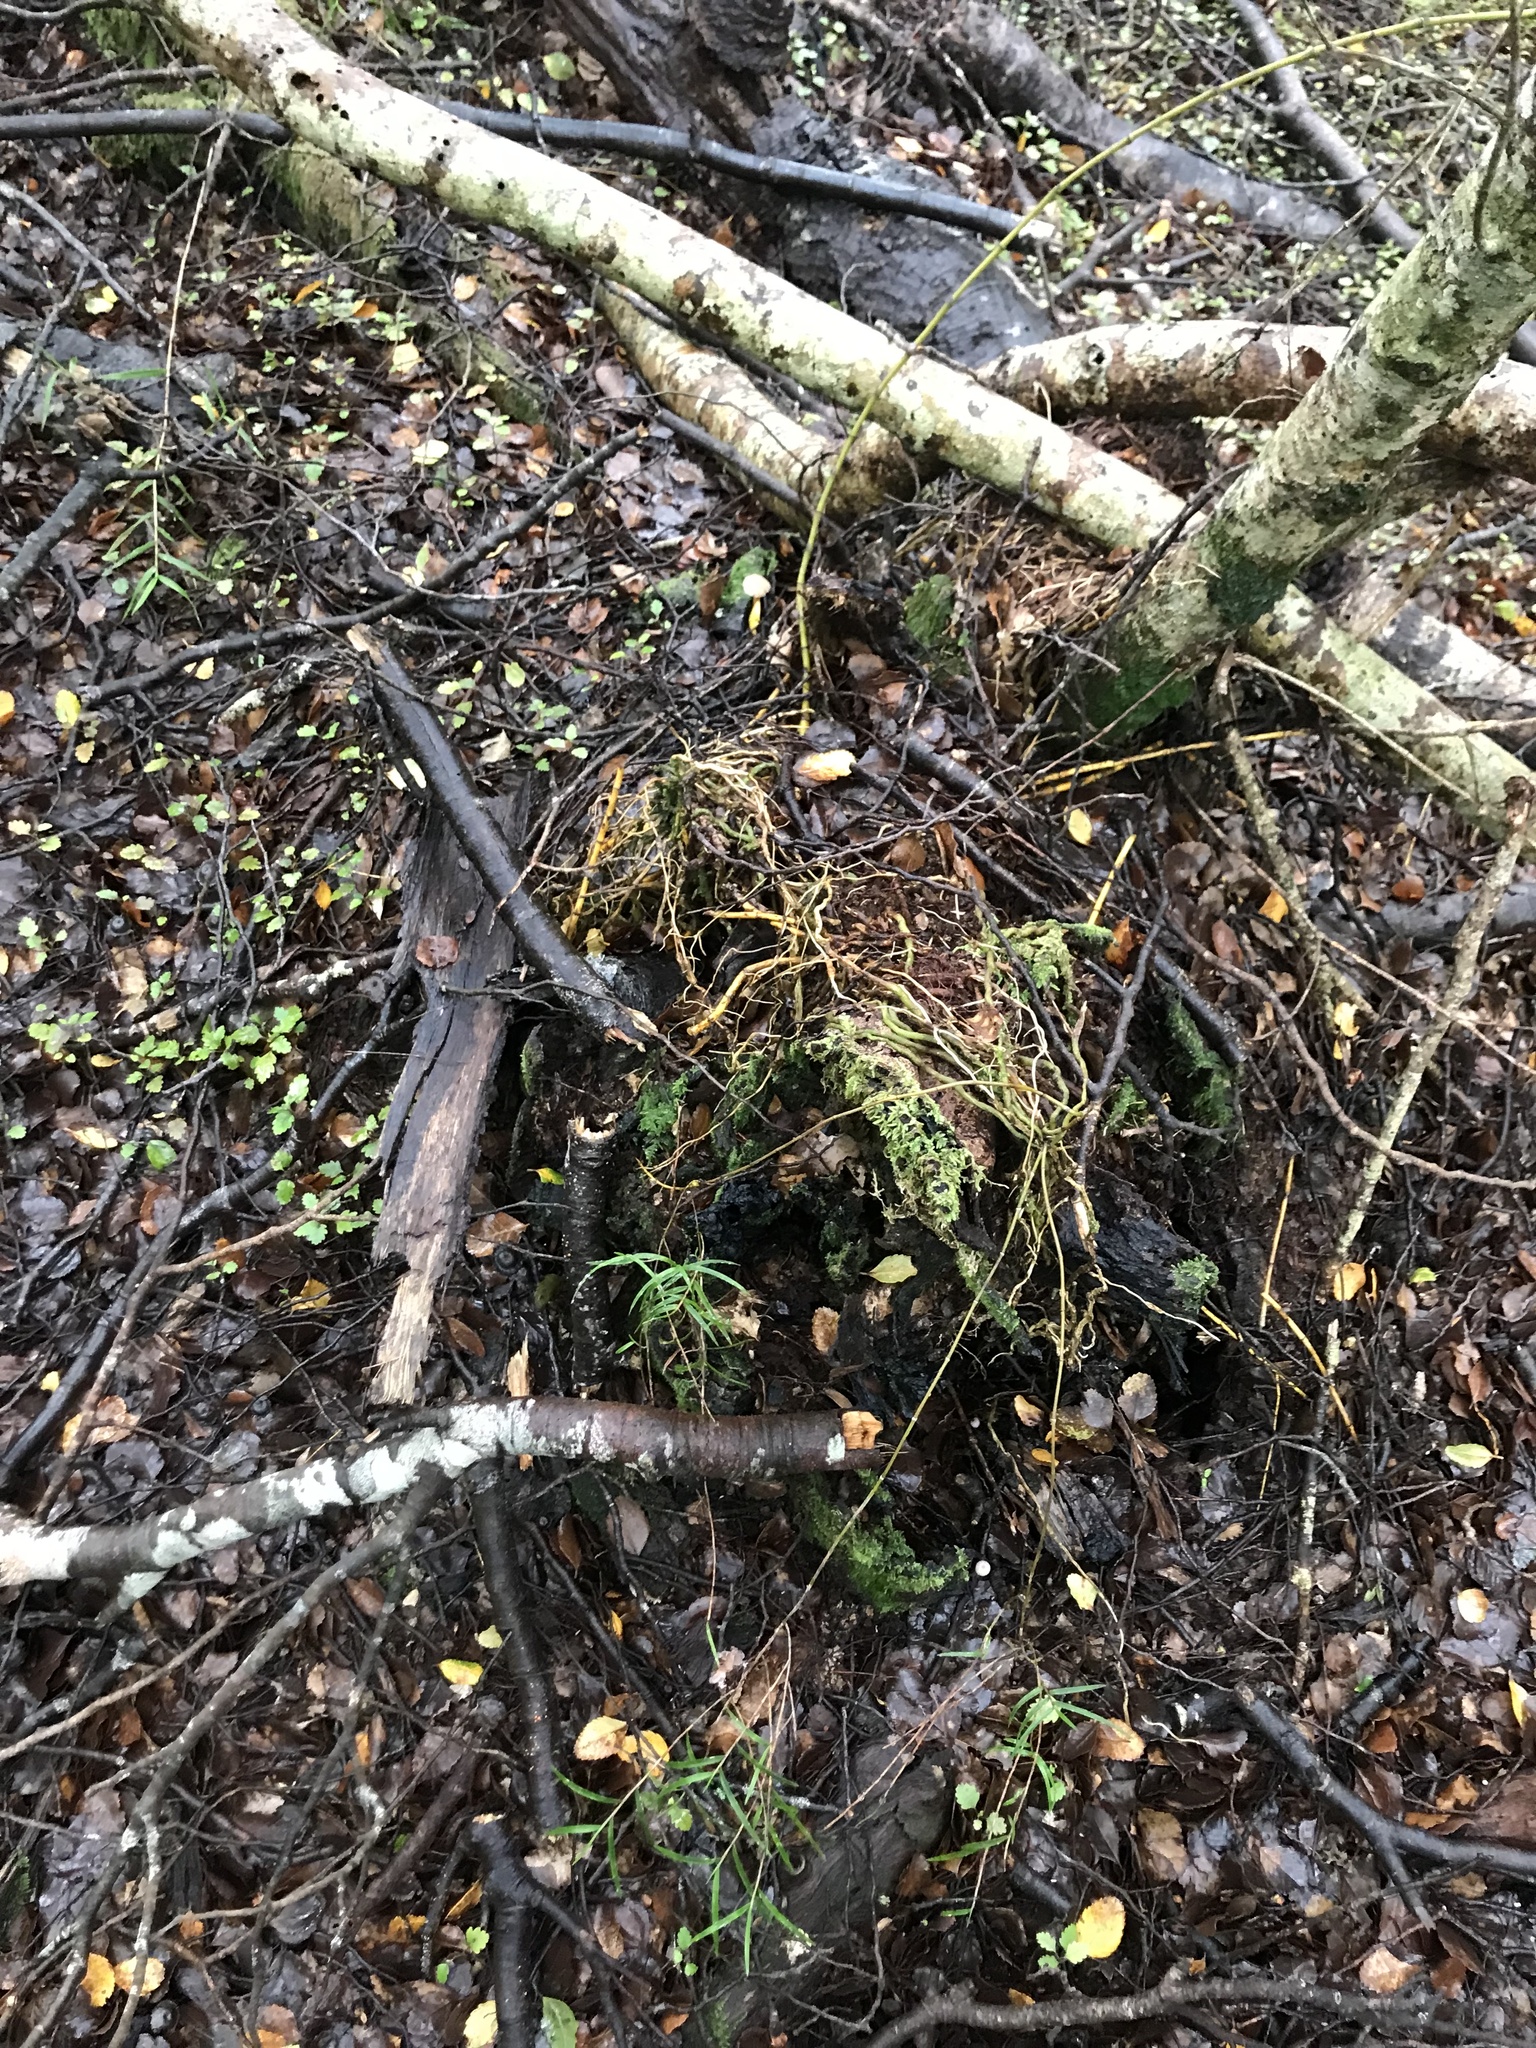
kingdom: Plantae
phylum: Tracheophyta
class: Liliopsida
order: Asparagales
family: Orchidaceae
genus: Dendrobium
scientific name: Dendrobium cunninghamii
